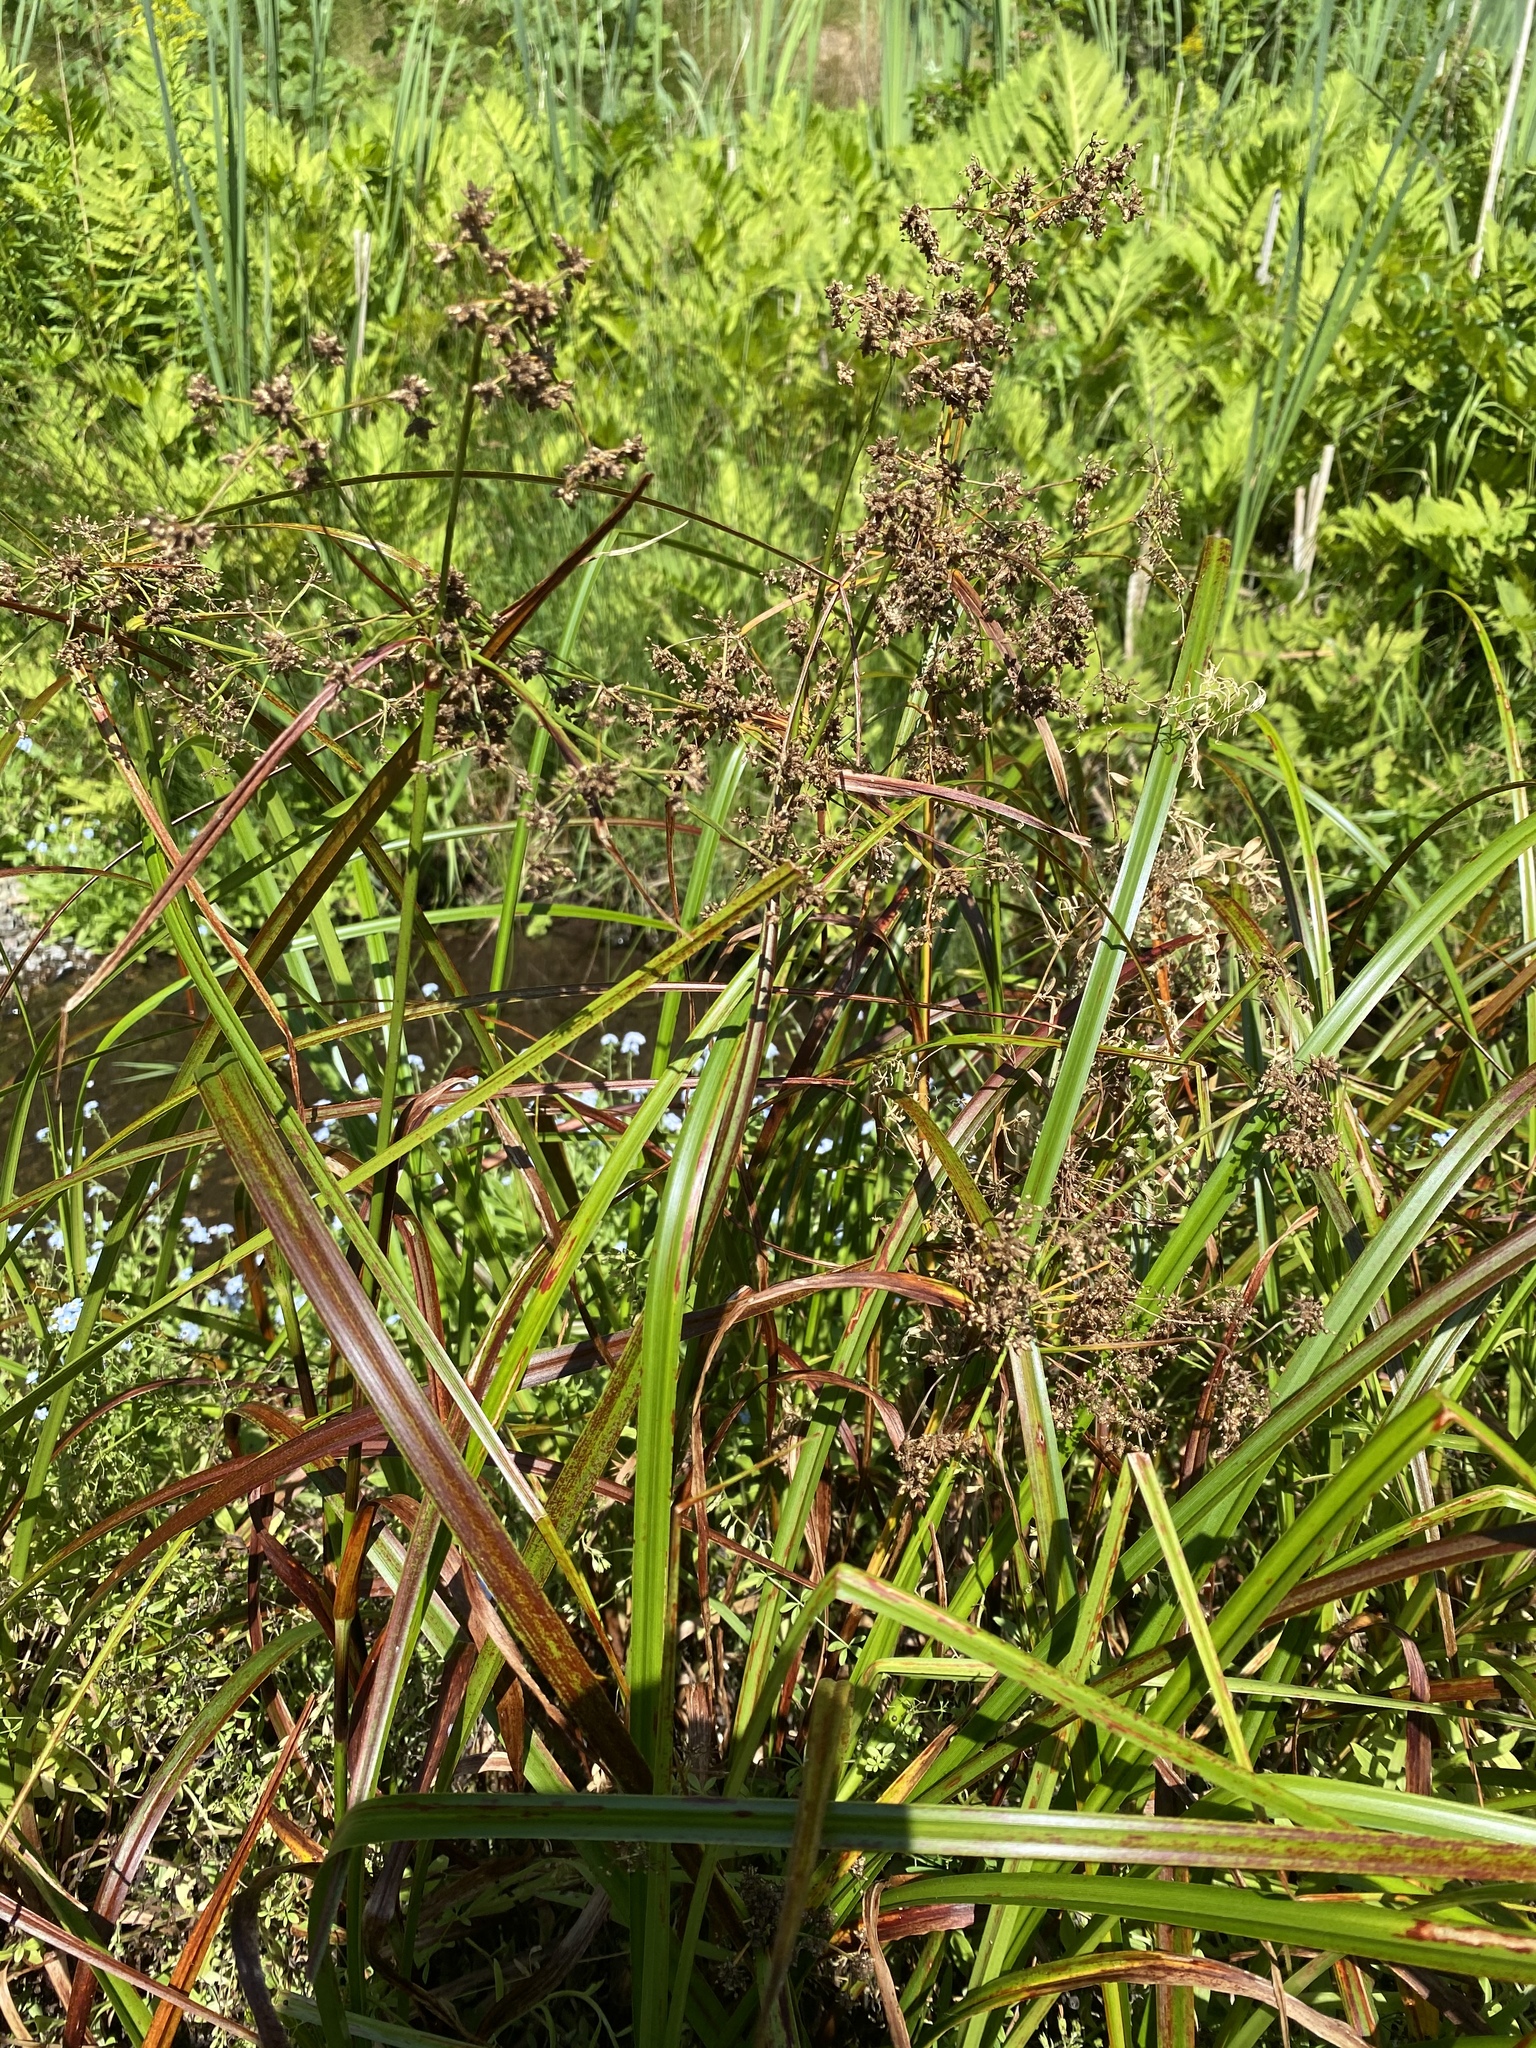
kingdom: Plantae
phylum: Tracheophyta
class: Liliopsida
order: Poales
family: Cyperaceae
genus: Scirpus
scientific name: Scirpus microcarpus
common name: Panicled bulrush
